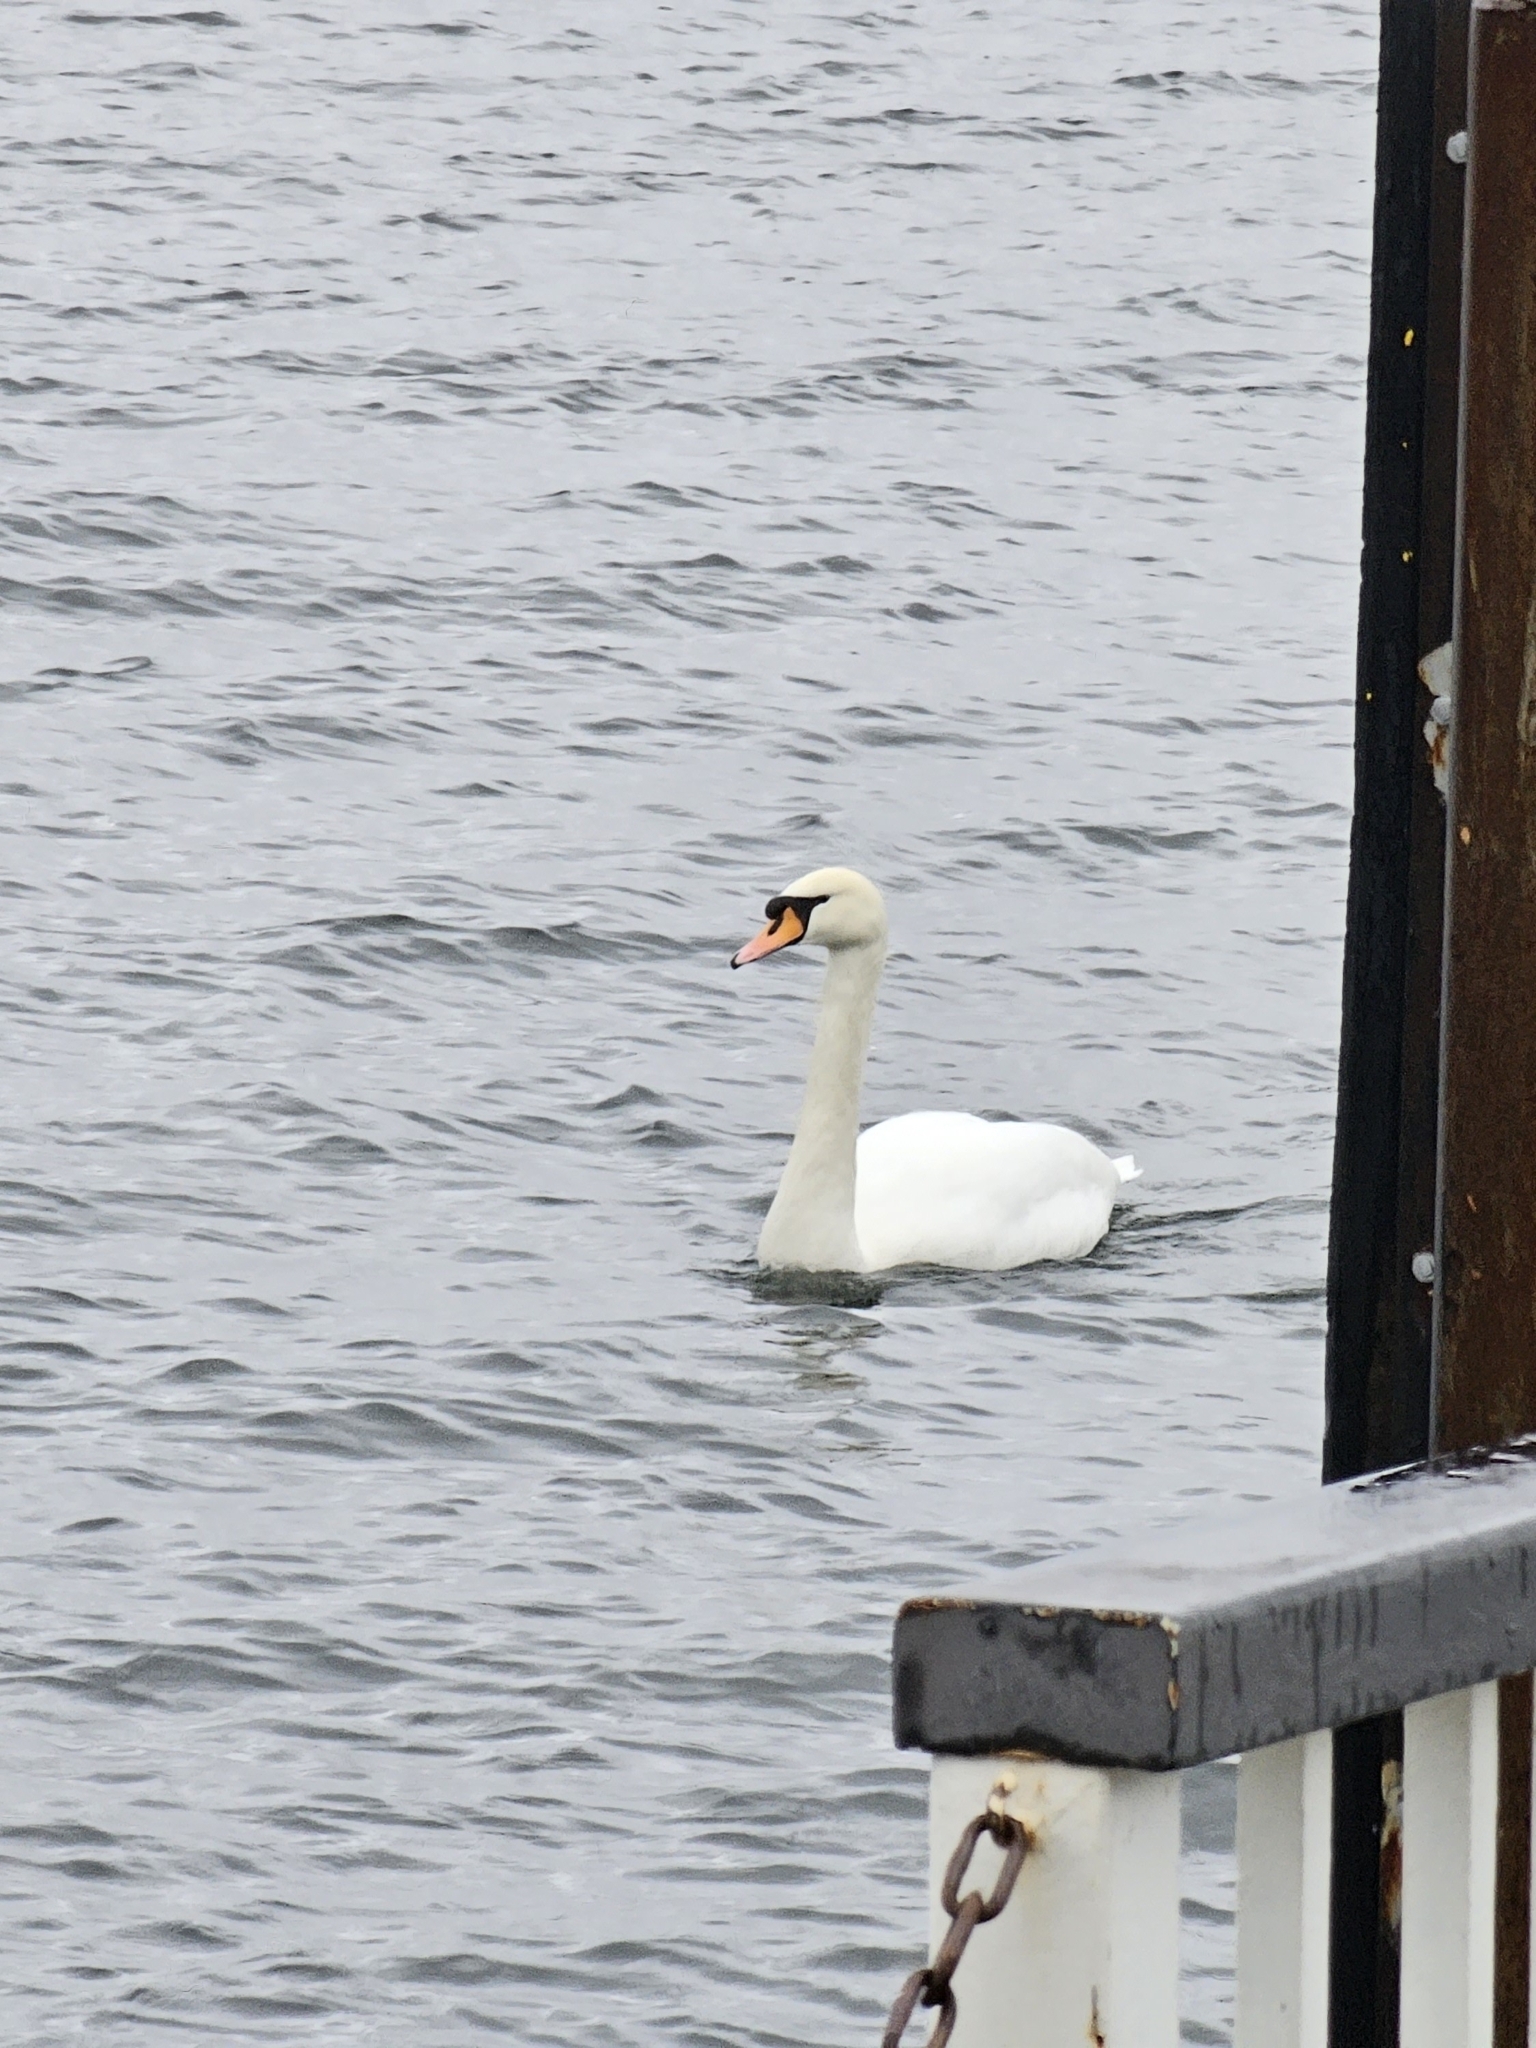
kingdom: Animalia
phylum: Chordata
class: Aves
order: Anseriformes
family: Anatidae
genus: Cygnus
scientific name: Cygnus olor
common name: Mute swan
